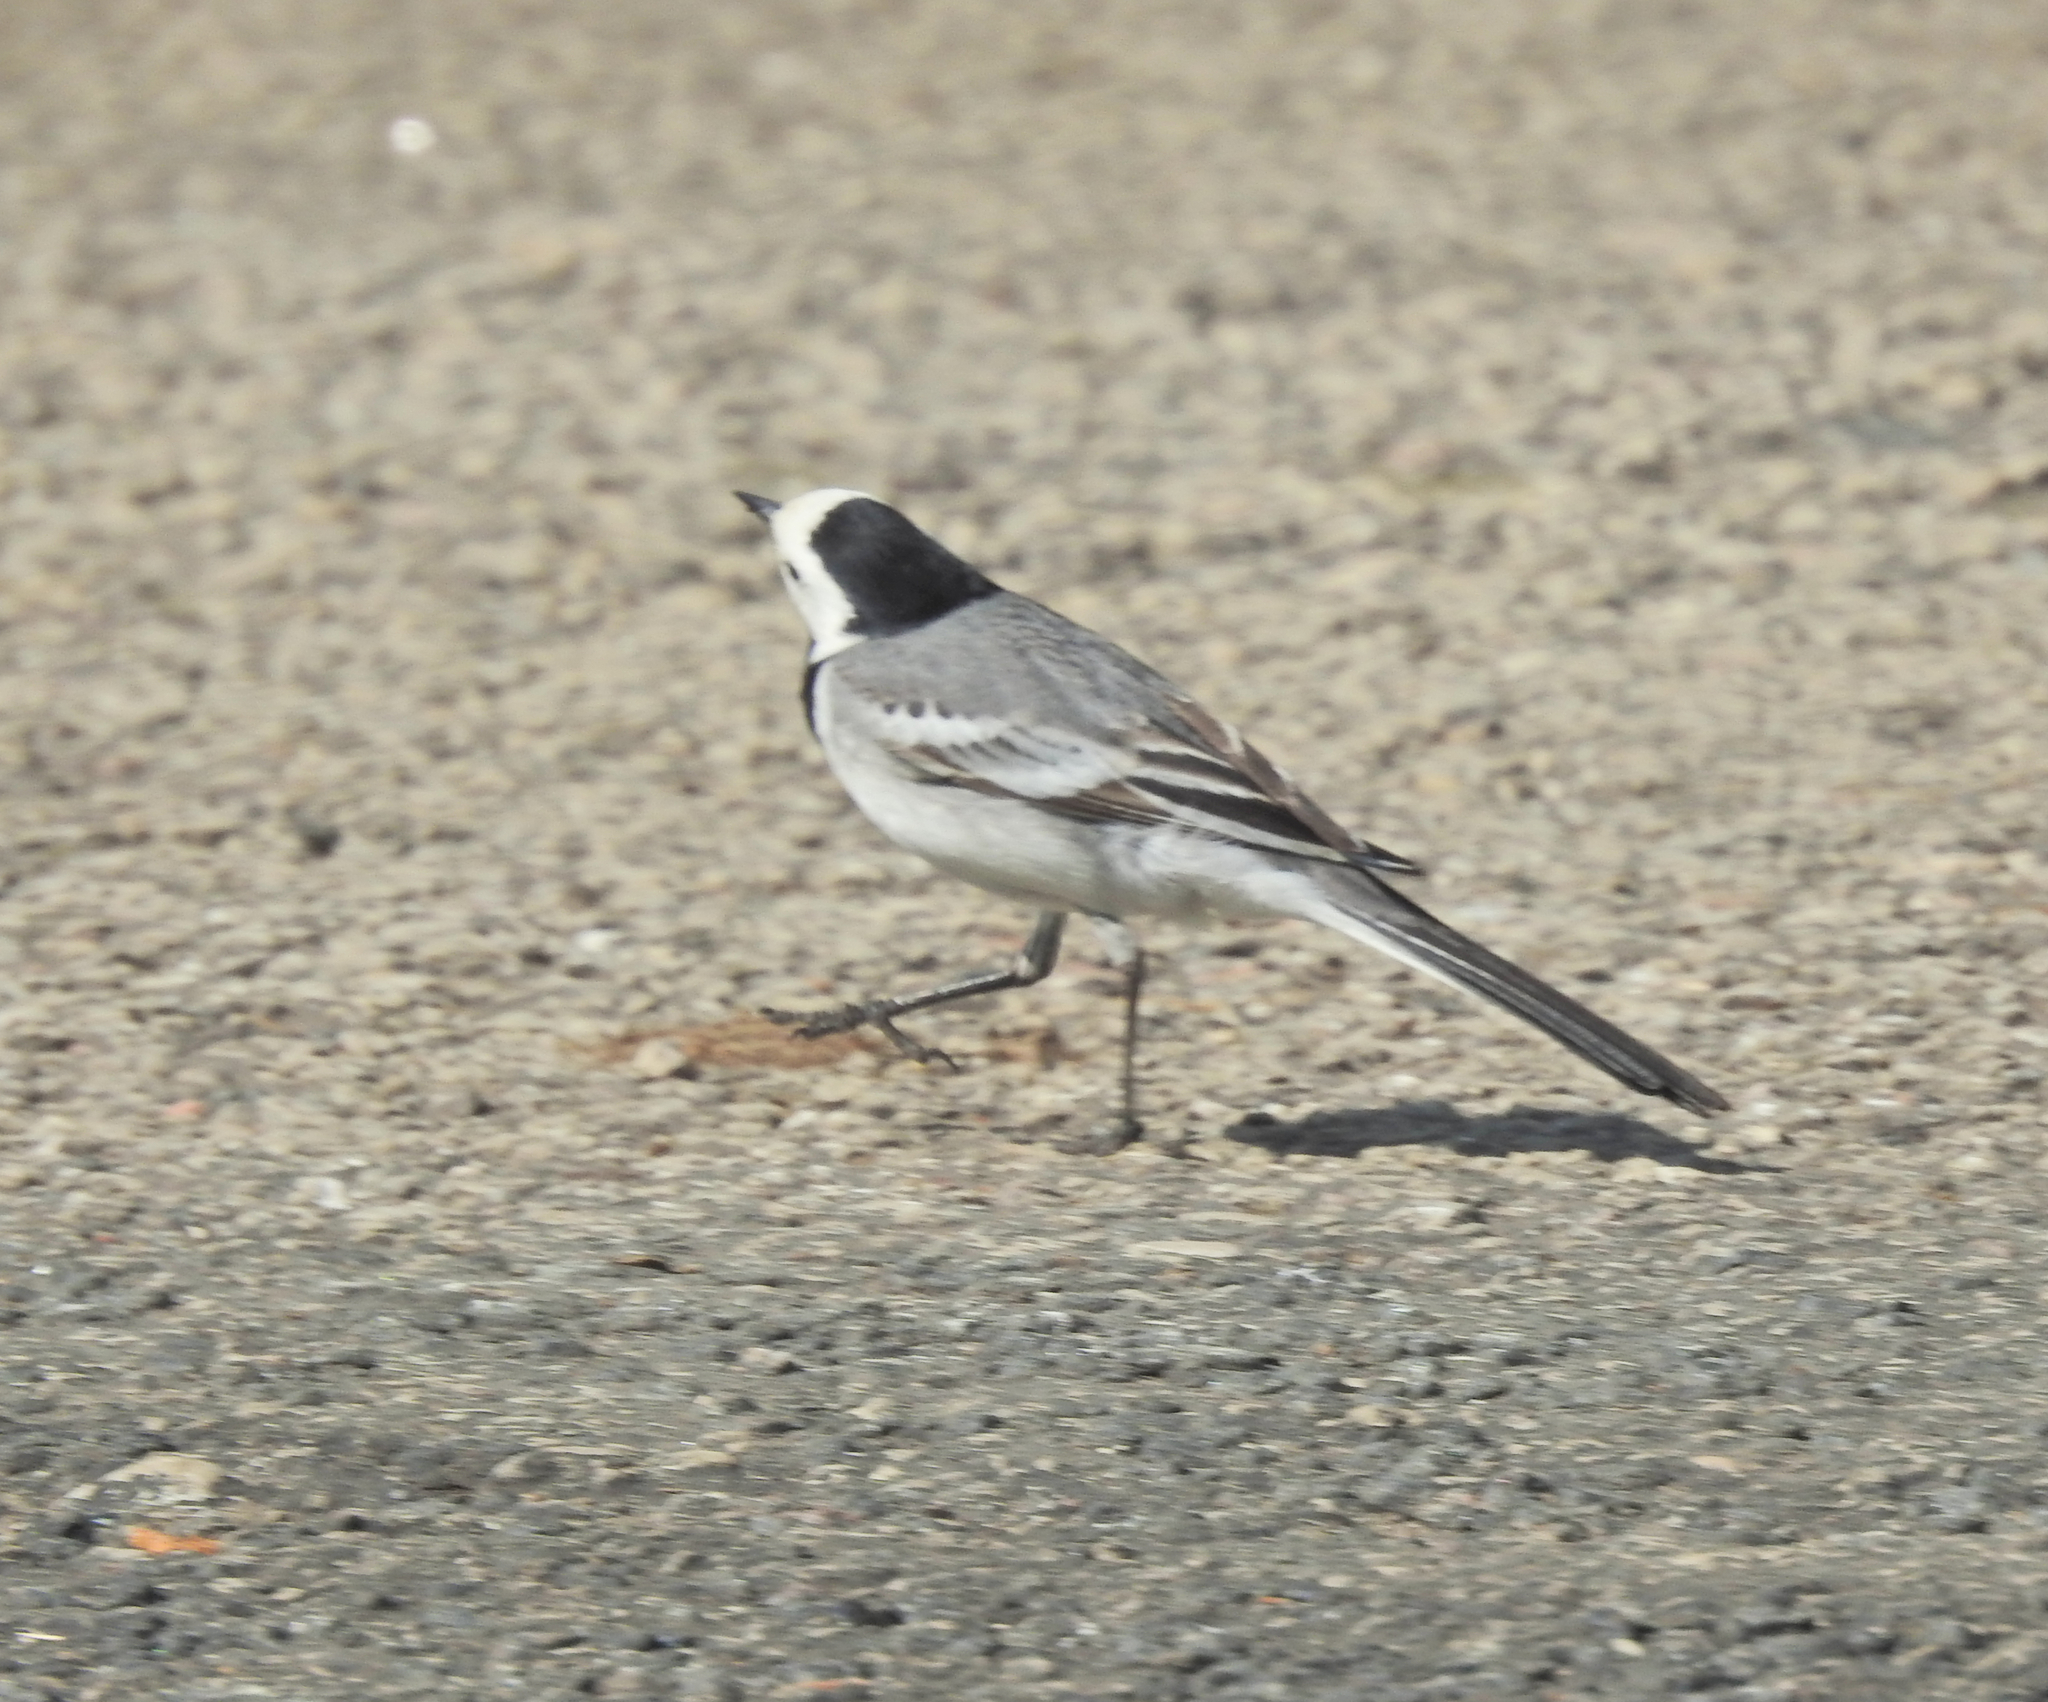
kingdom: Animalia
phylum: Chordata
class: Aves
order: Passeriformes
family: Motacillidae
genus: Motacilla
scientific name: Motacilla alba
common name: White wagtail
